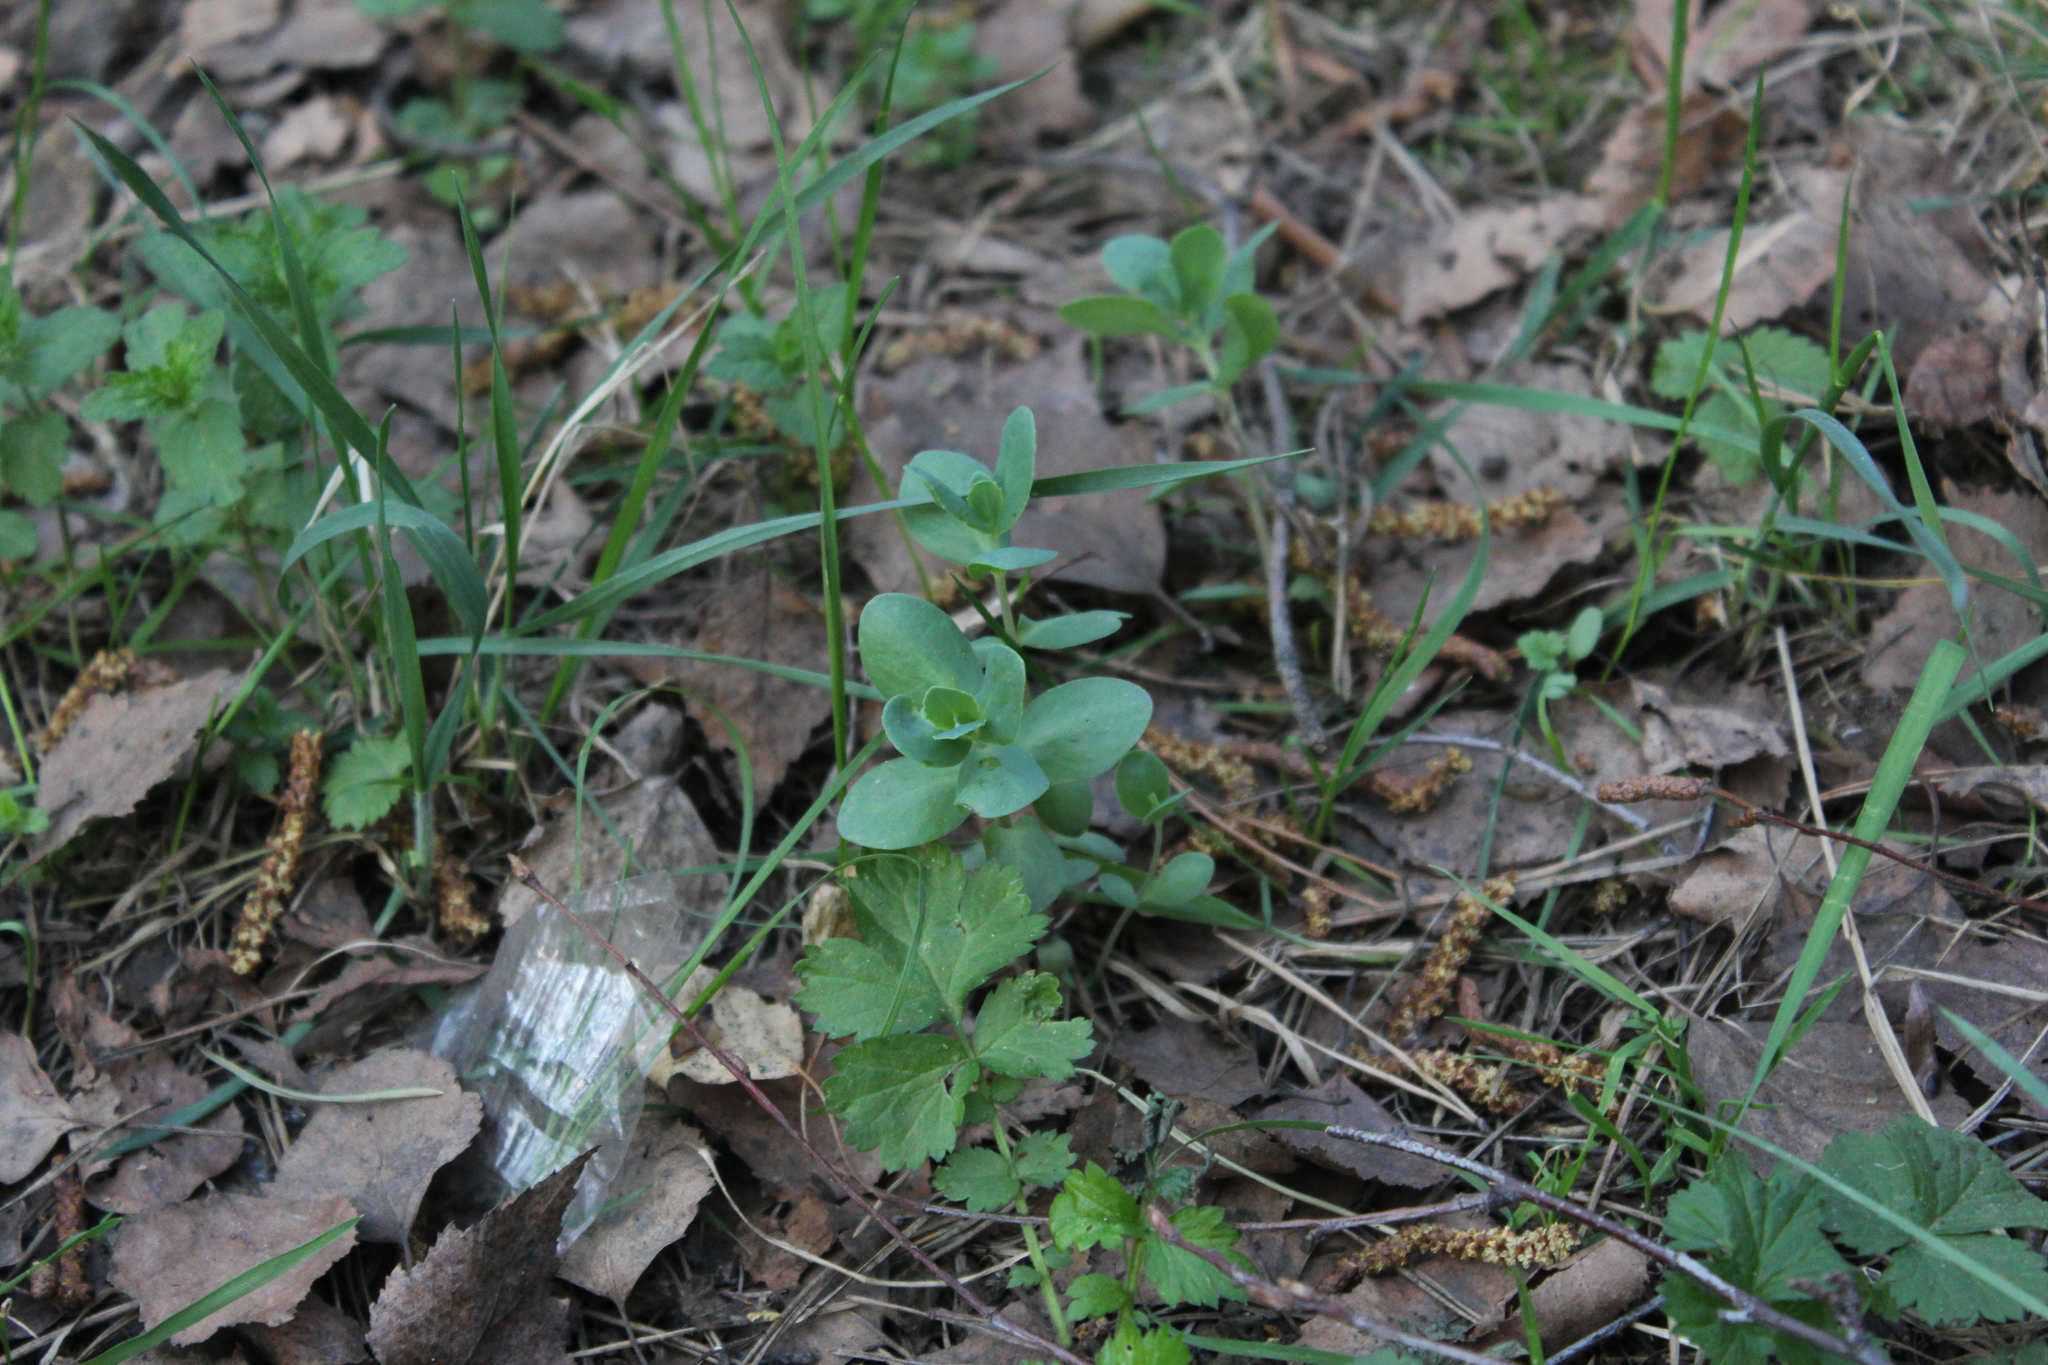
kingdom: Plantae
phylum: Tracheophyta
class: Magnoliopsida
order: Saxifragales
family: Crassulaceae
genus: Hylotelephium
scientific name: Hylotelephium maximum
